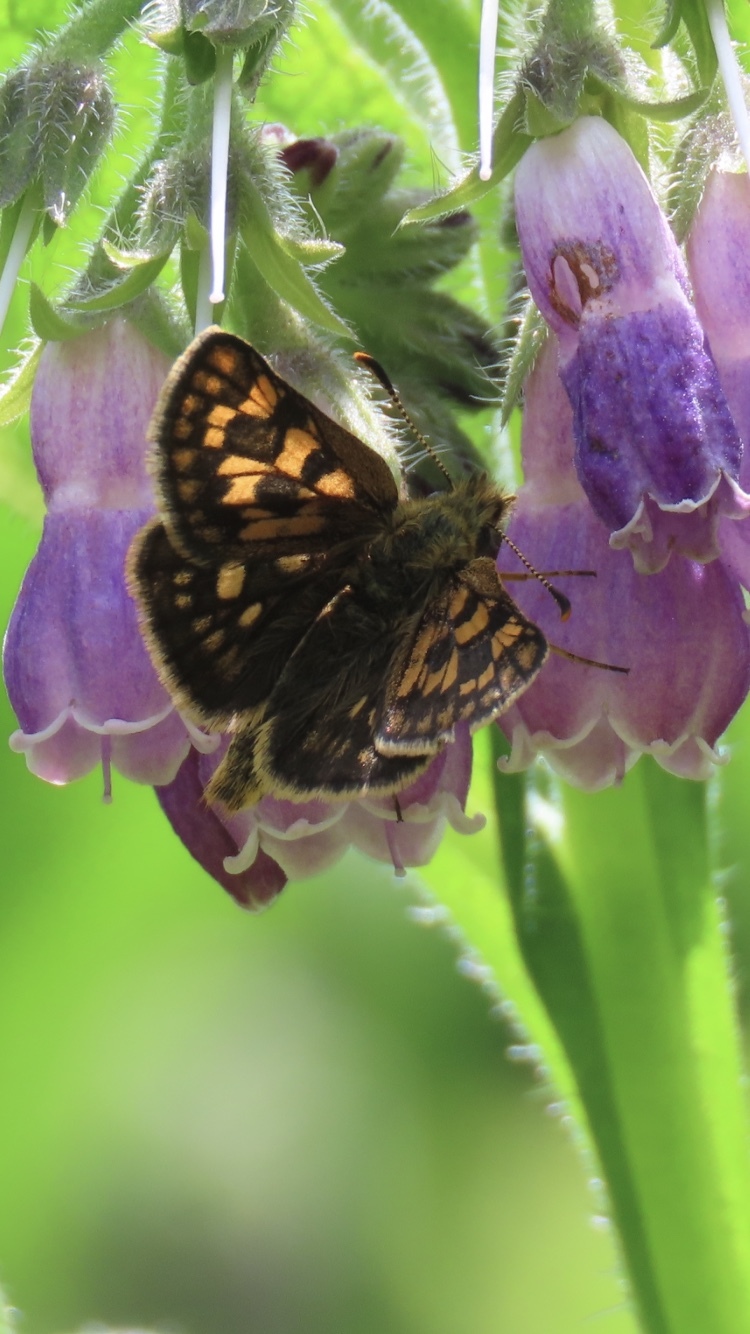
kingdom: Animalia
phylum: Arthropoda
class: Insecta
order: Lepidoptera
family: Hesperiidae
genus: Carterocephalus
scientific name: Carterocephalus palaemon
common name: Chequered skipper
